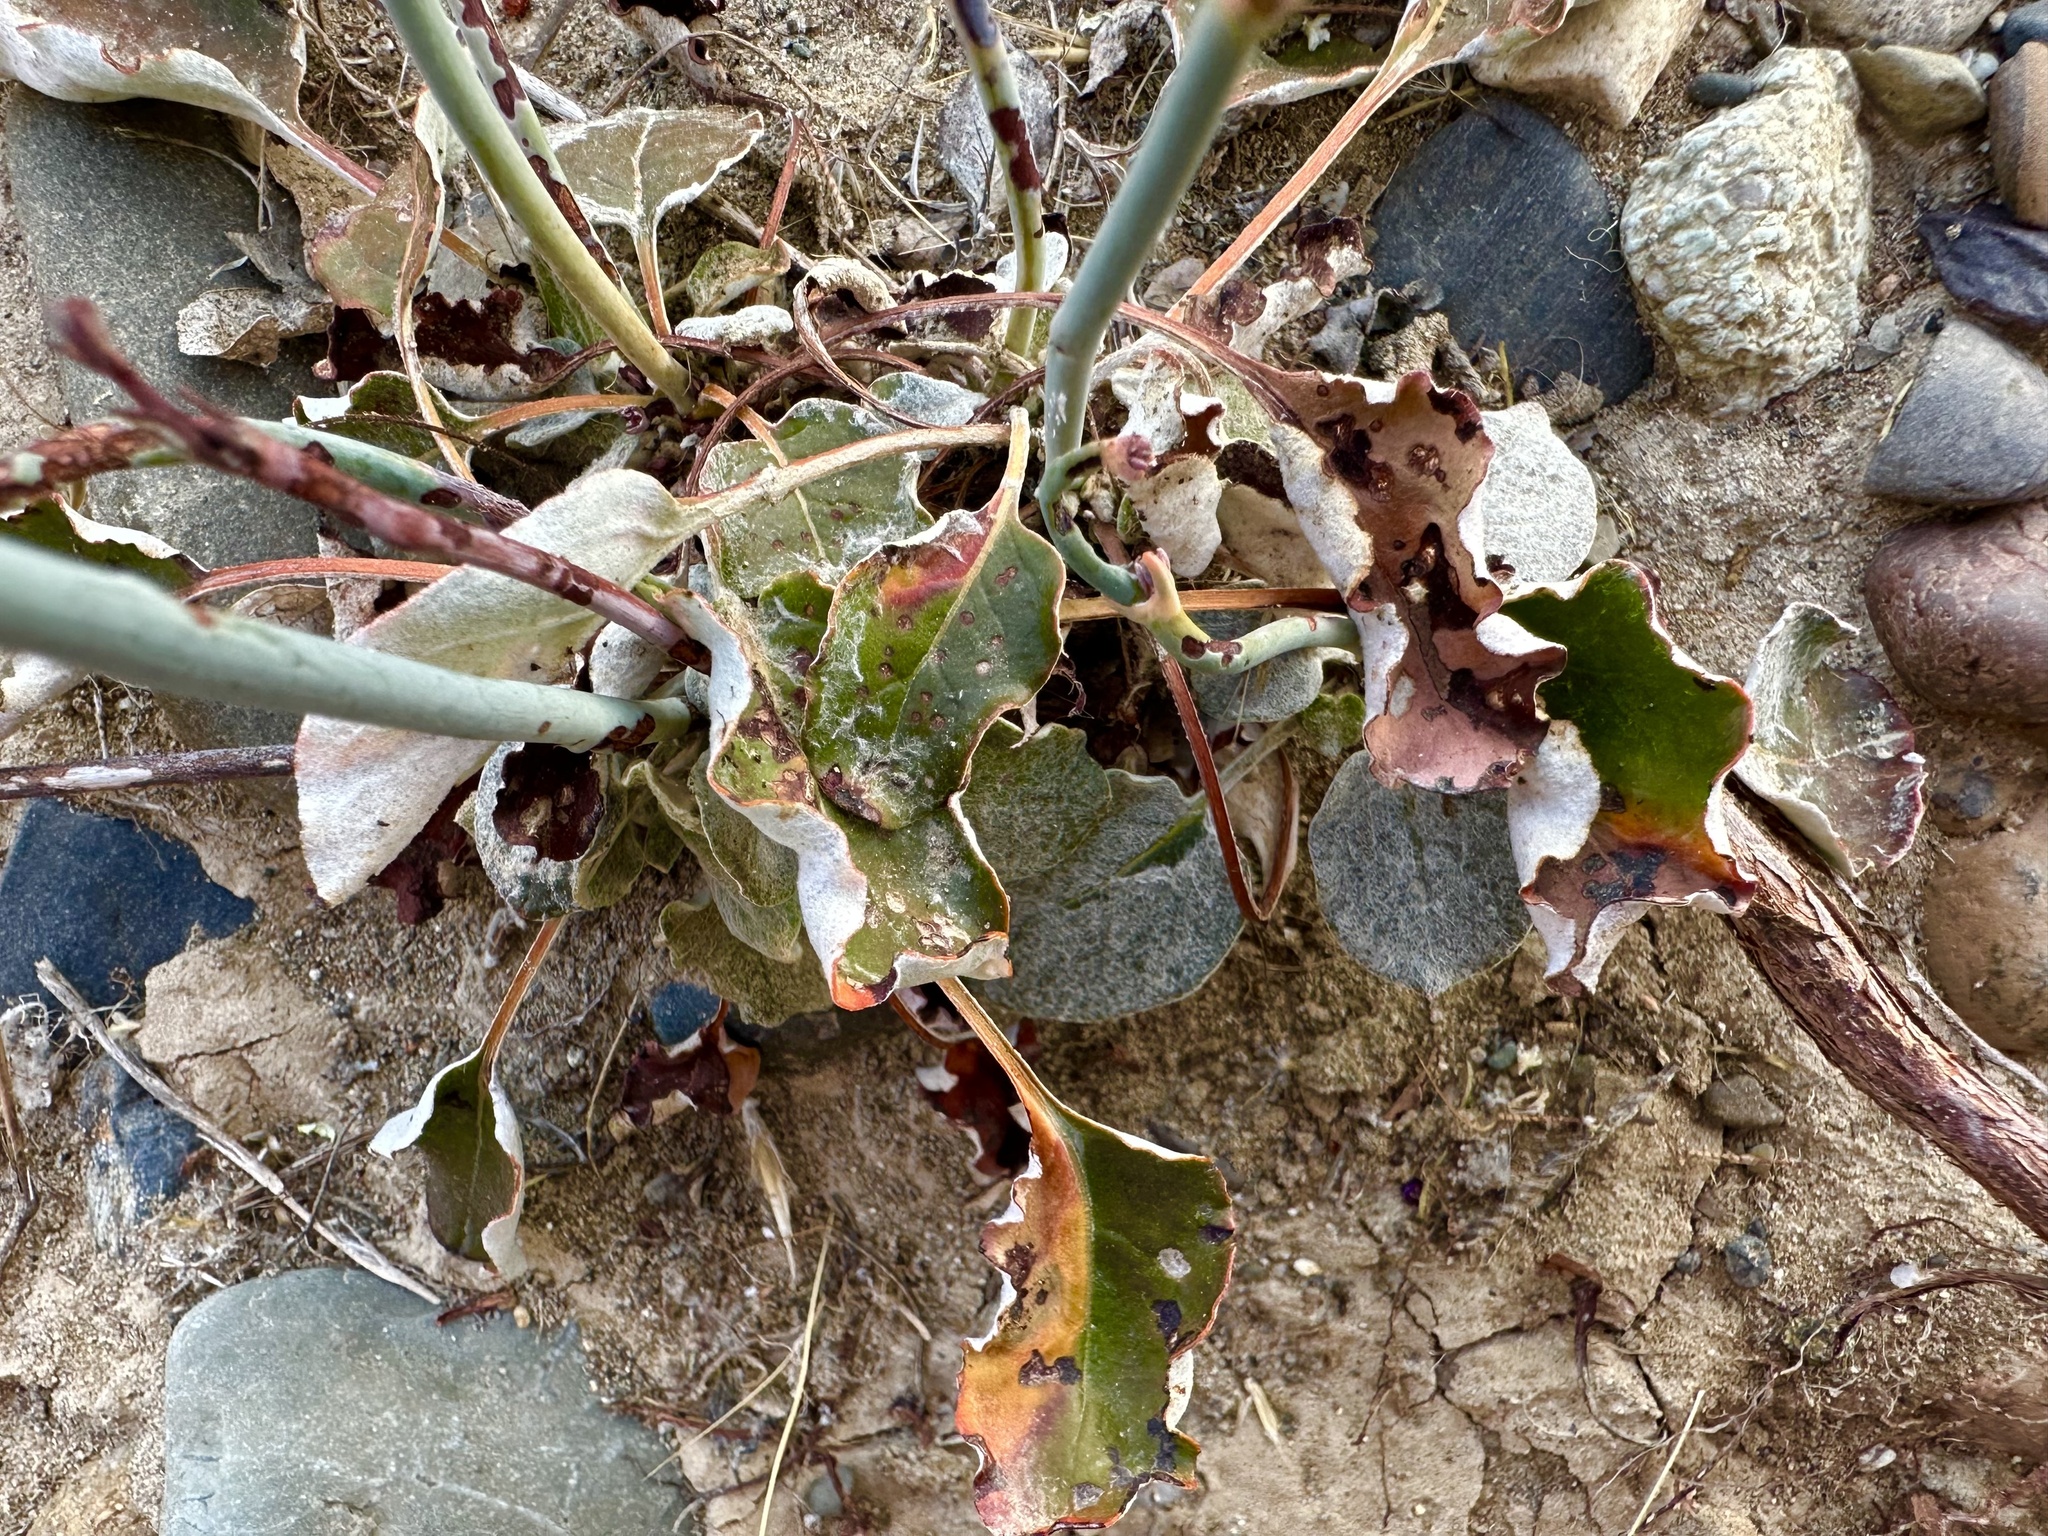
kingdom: Plantae
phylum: Tracheophyta
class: Magnoliopsida
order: Caryophyllales
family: Polygonaceae
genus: Eriogonum
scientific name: Eriogonum nudum
